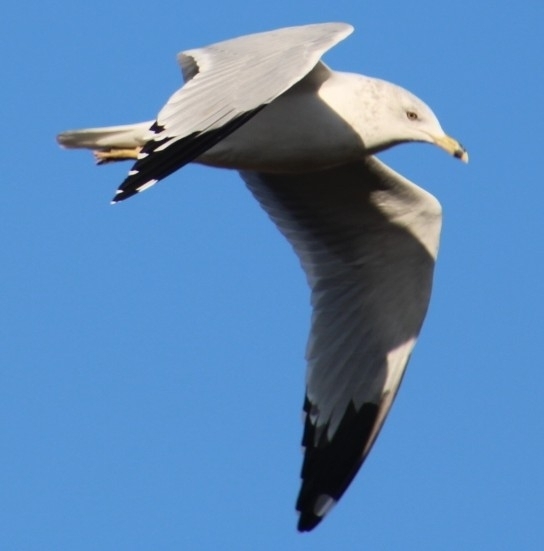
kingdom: Animalia
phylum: Chordata
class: Aves
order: Charadriiformes
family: Laridae
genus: Larus
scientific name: Larus delawarensis
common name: Ring-billed gull
